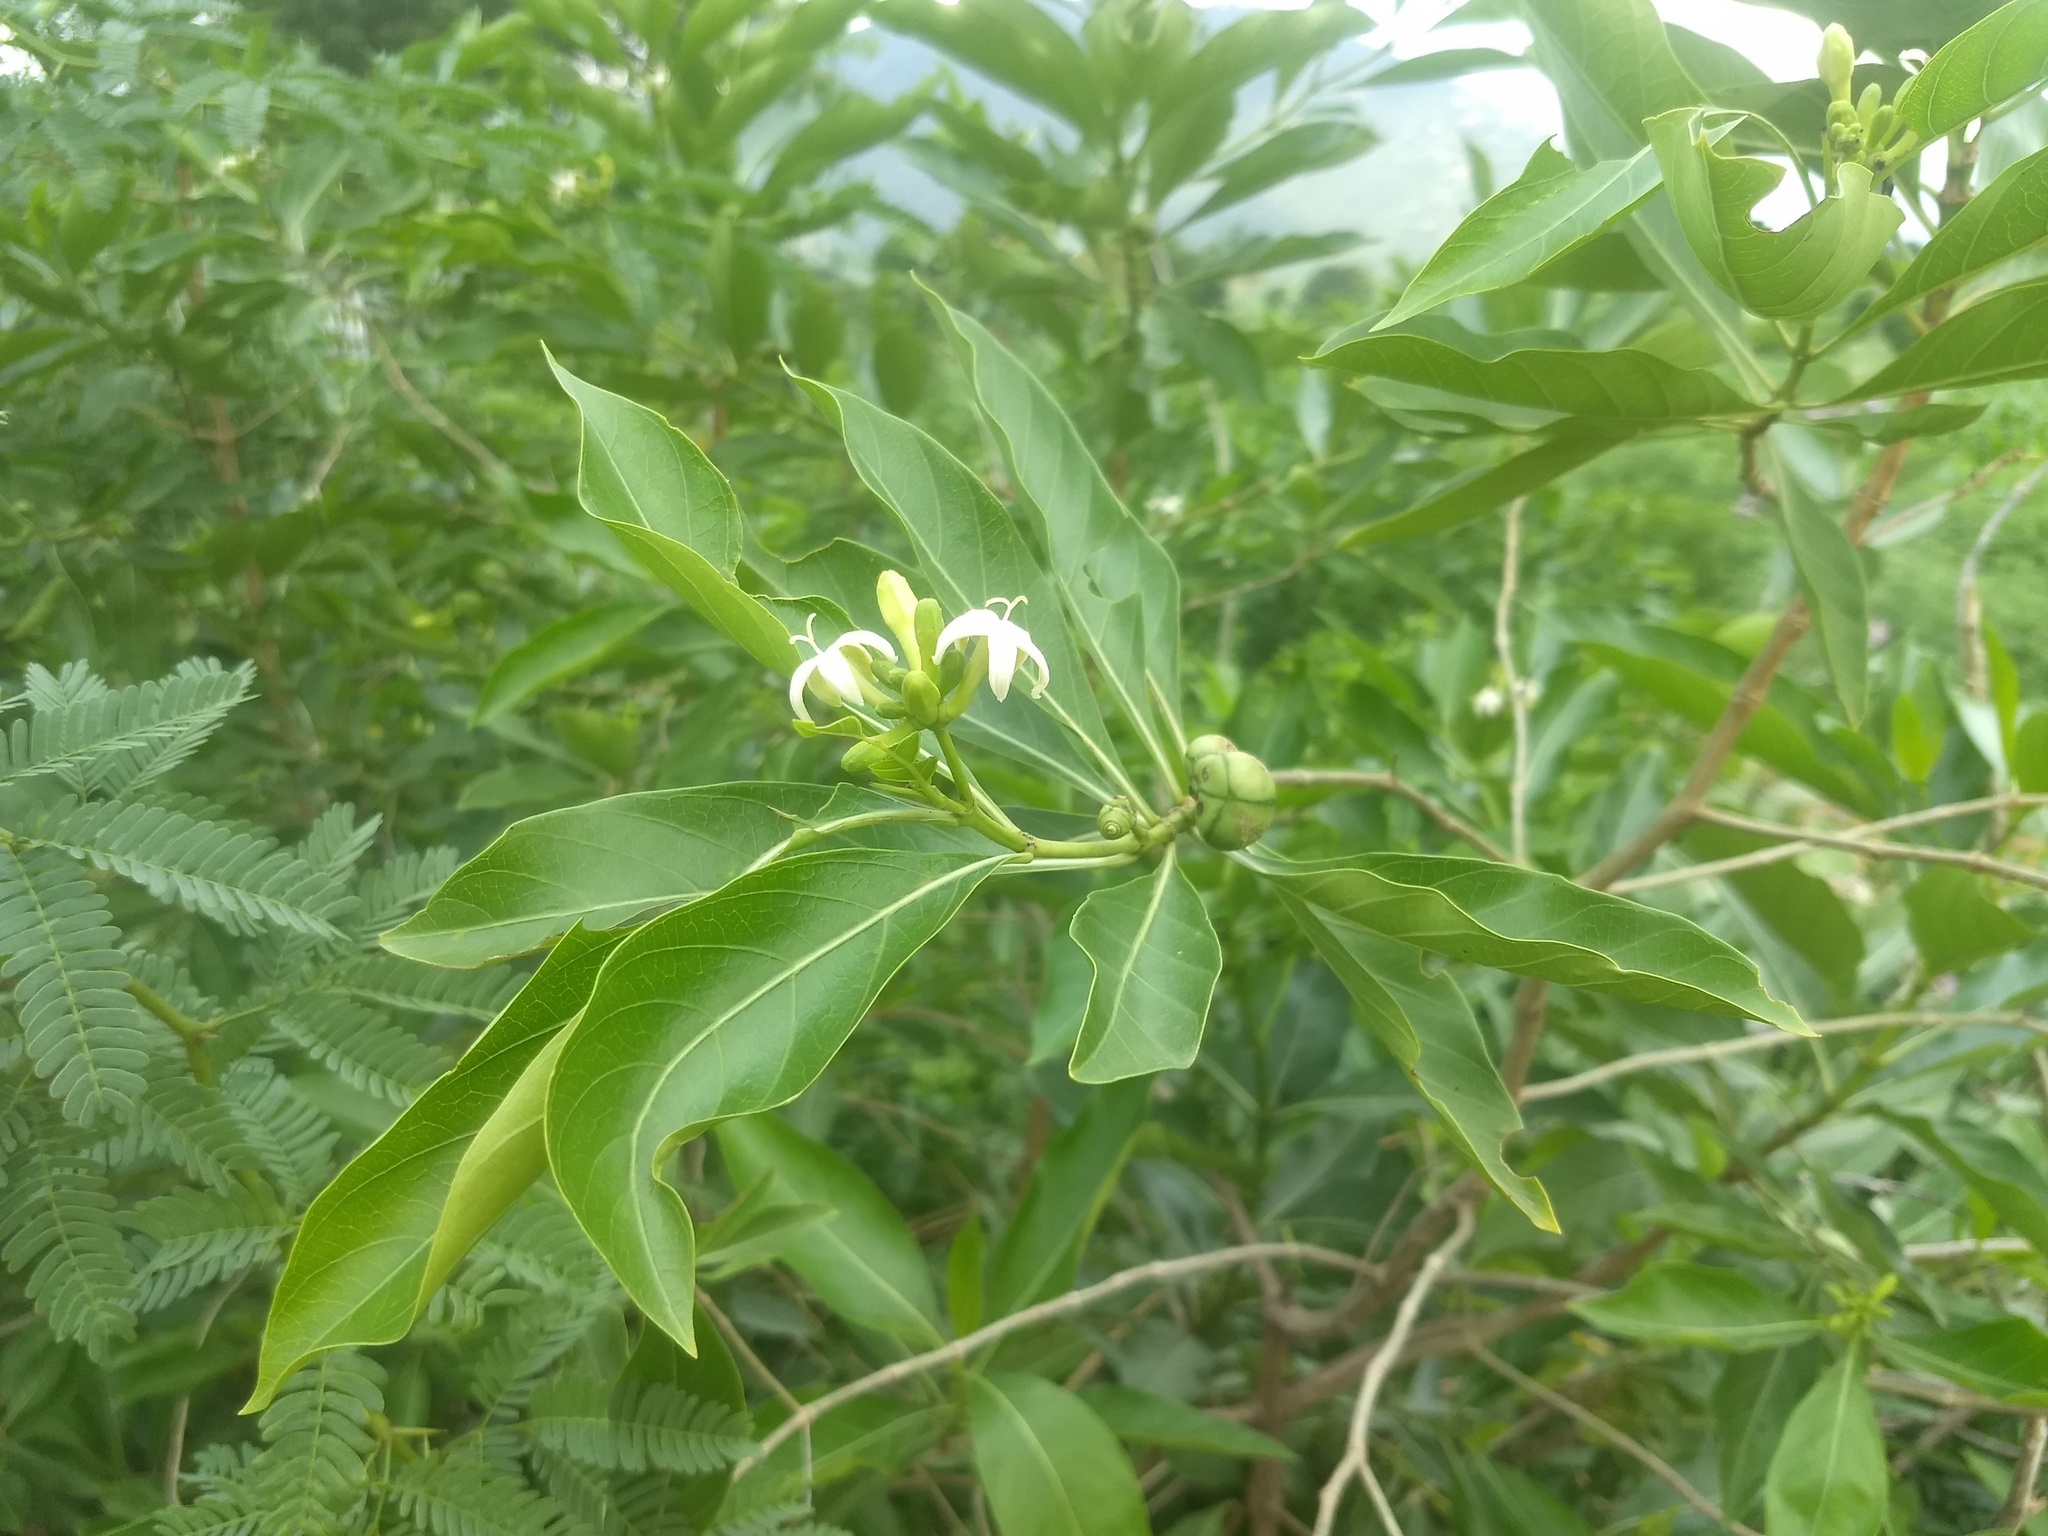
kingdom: Plantae
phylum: Tracheophyta
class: Magnoliopsida
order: Gentianales
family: Rubiaceae
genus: Morinda
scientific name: Morinda coreia
